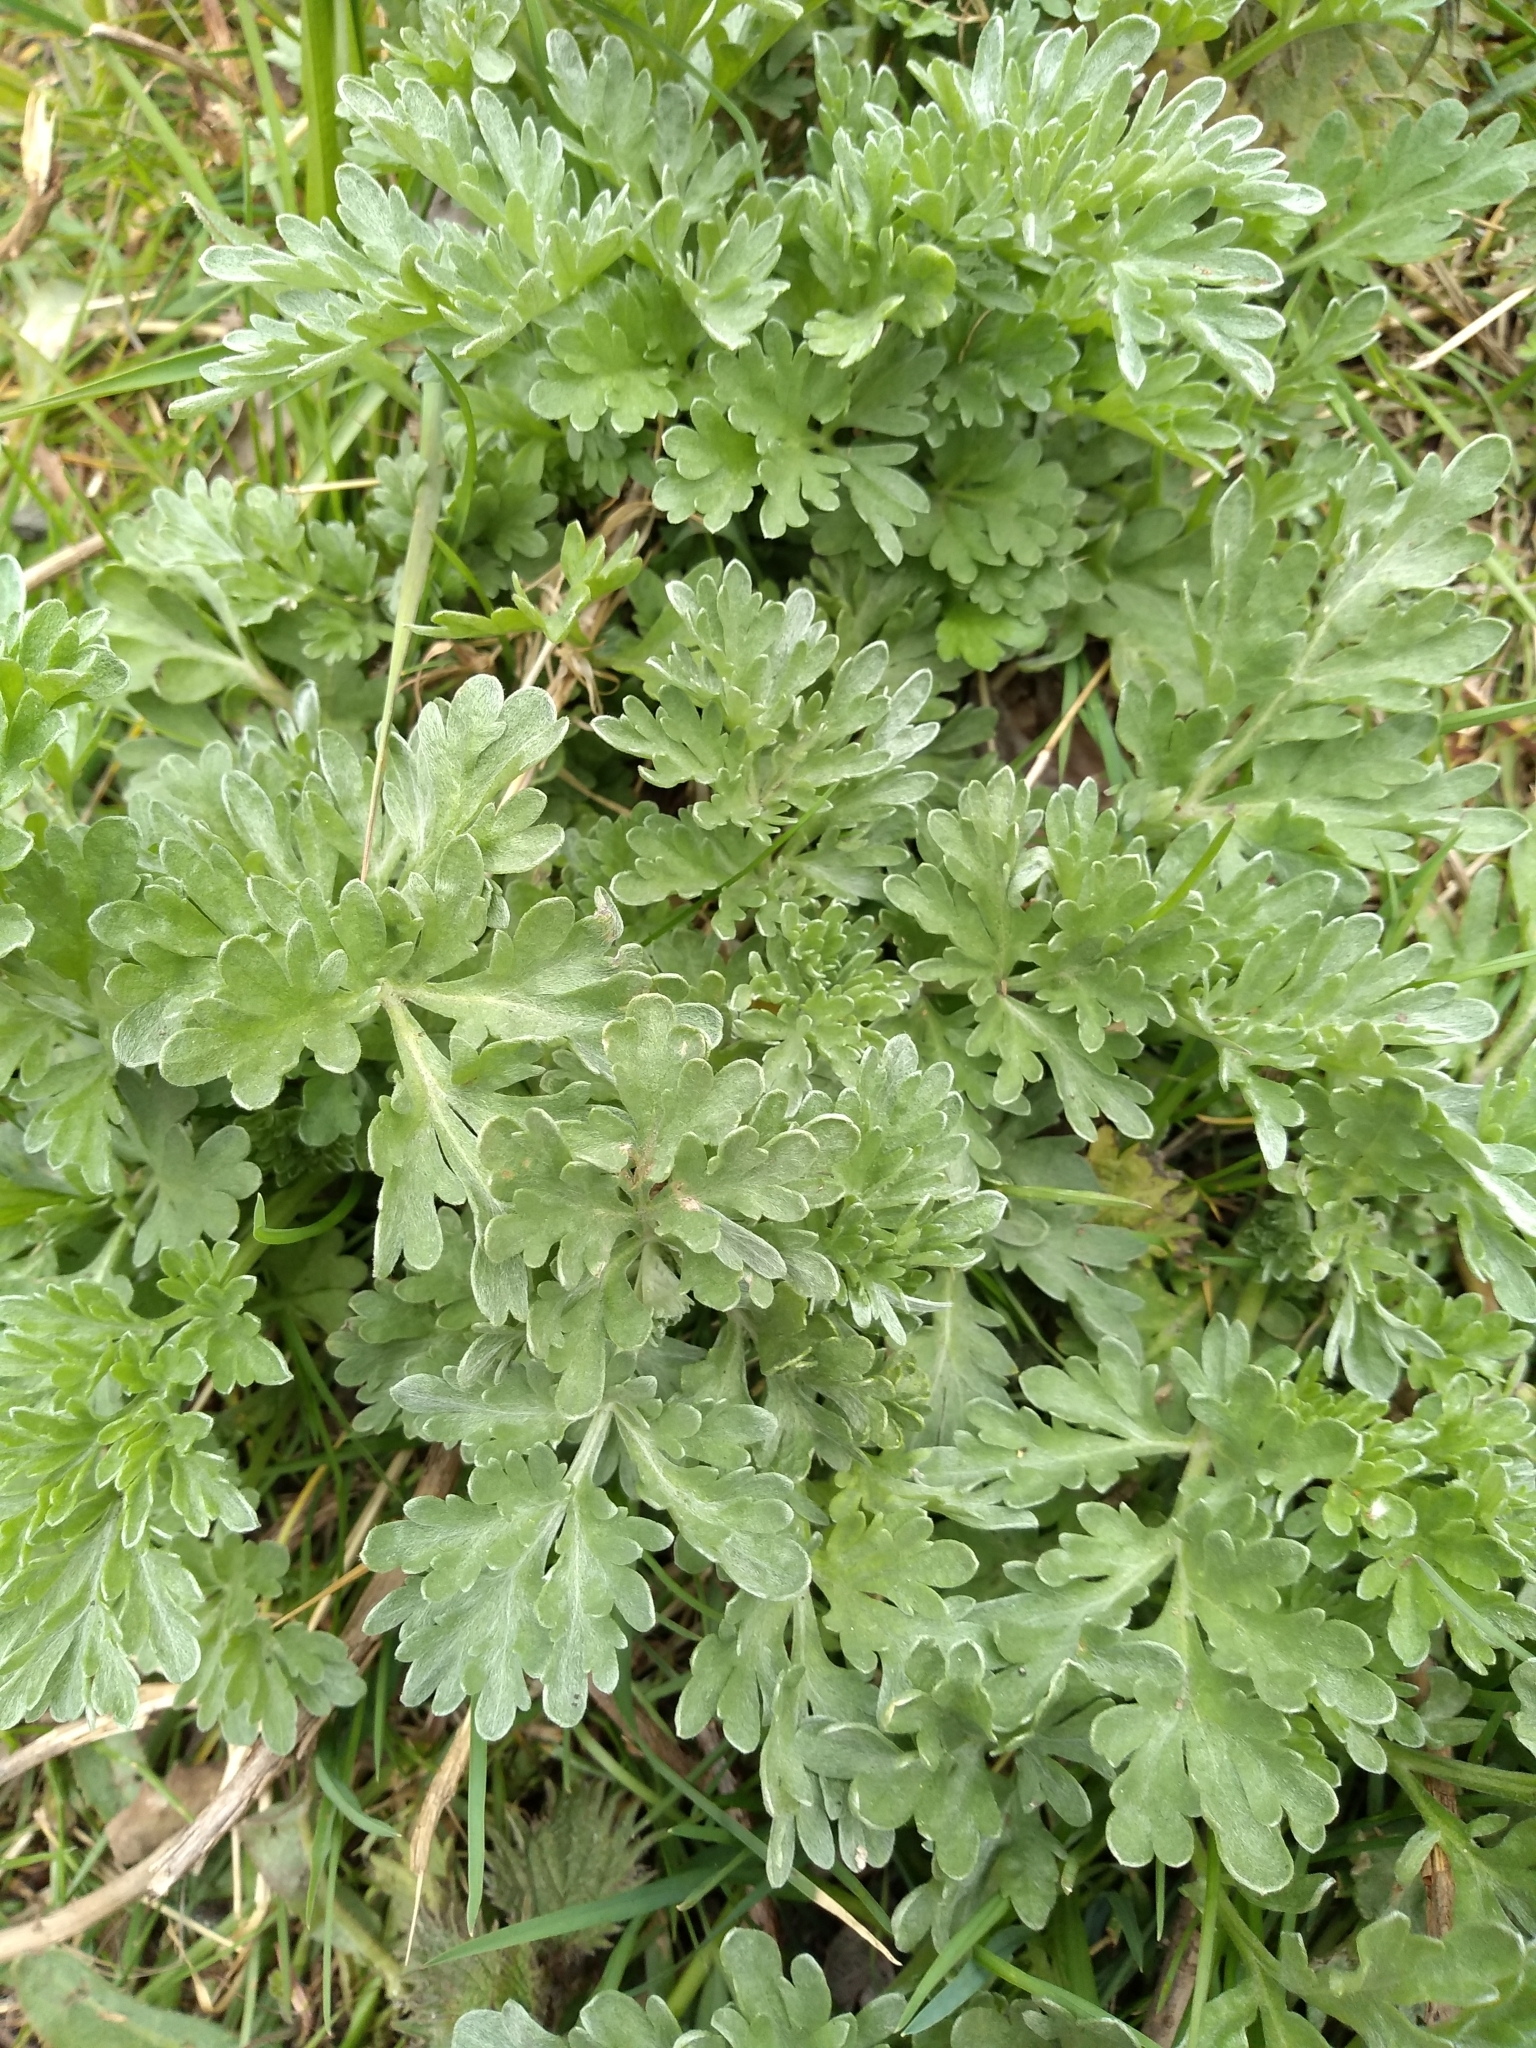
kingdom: Plantae
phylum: Tracheophyta
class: Magnoliopsida
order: Asterales
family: Asteraceae
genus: Artemisia
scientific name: Artemisia absinthium
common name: Wormwood
